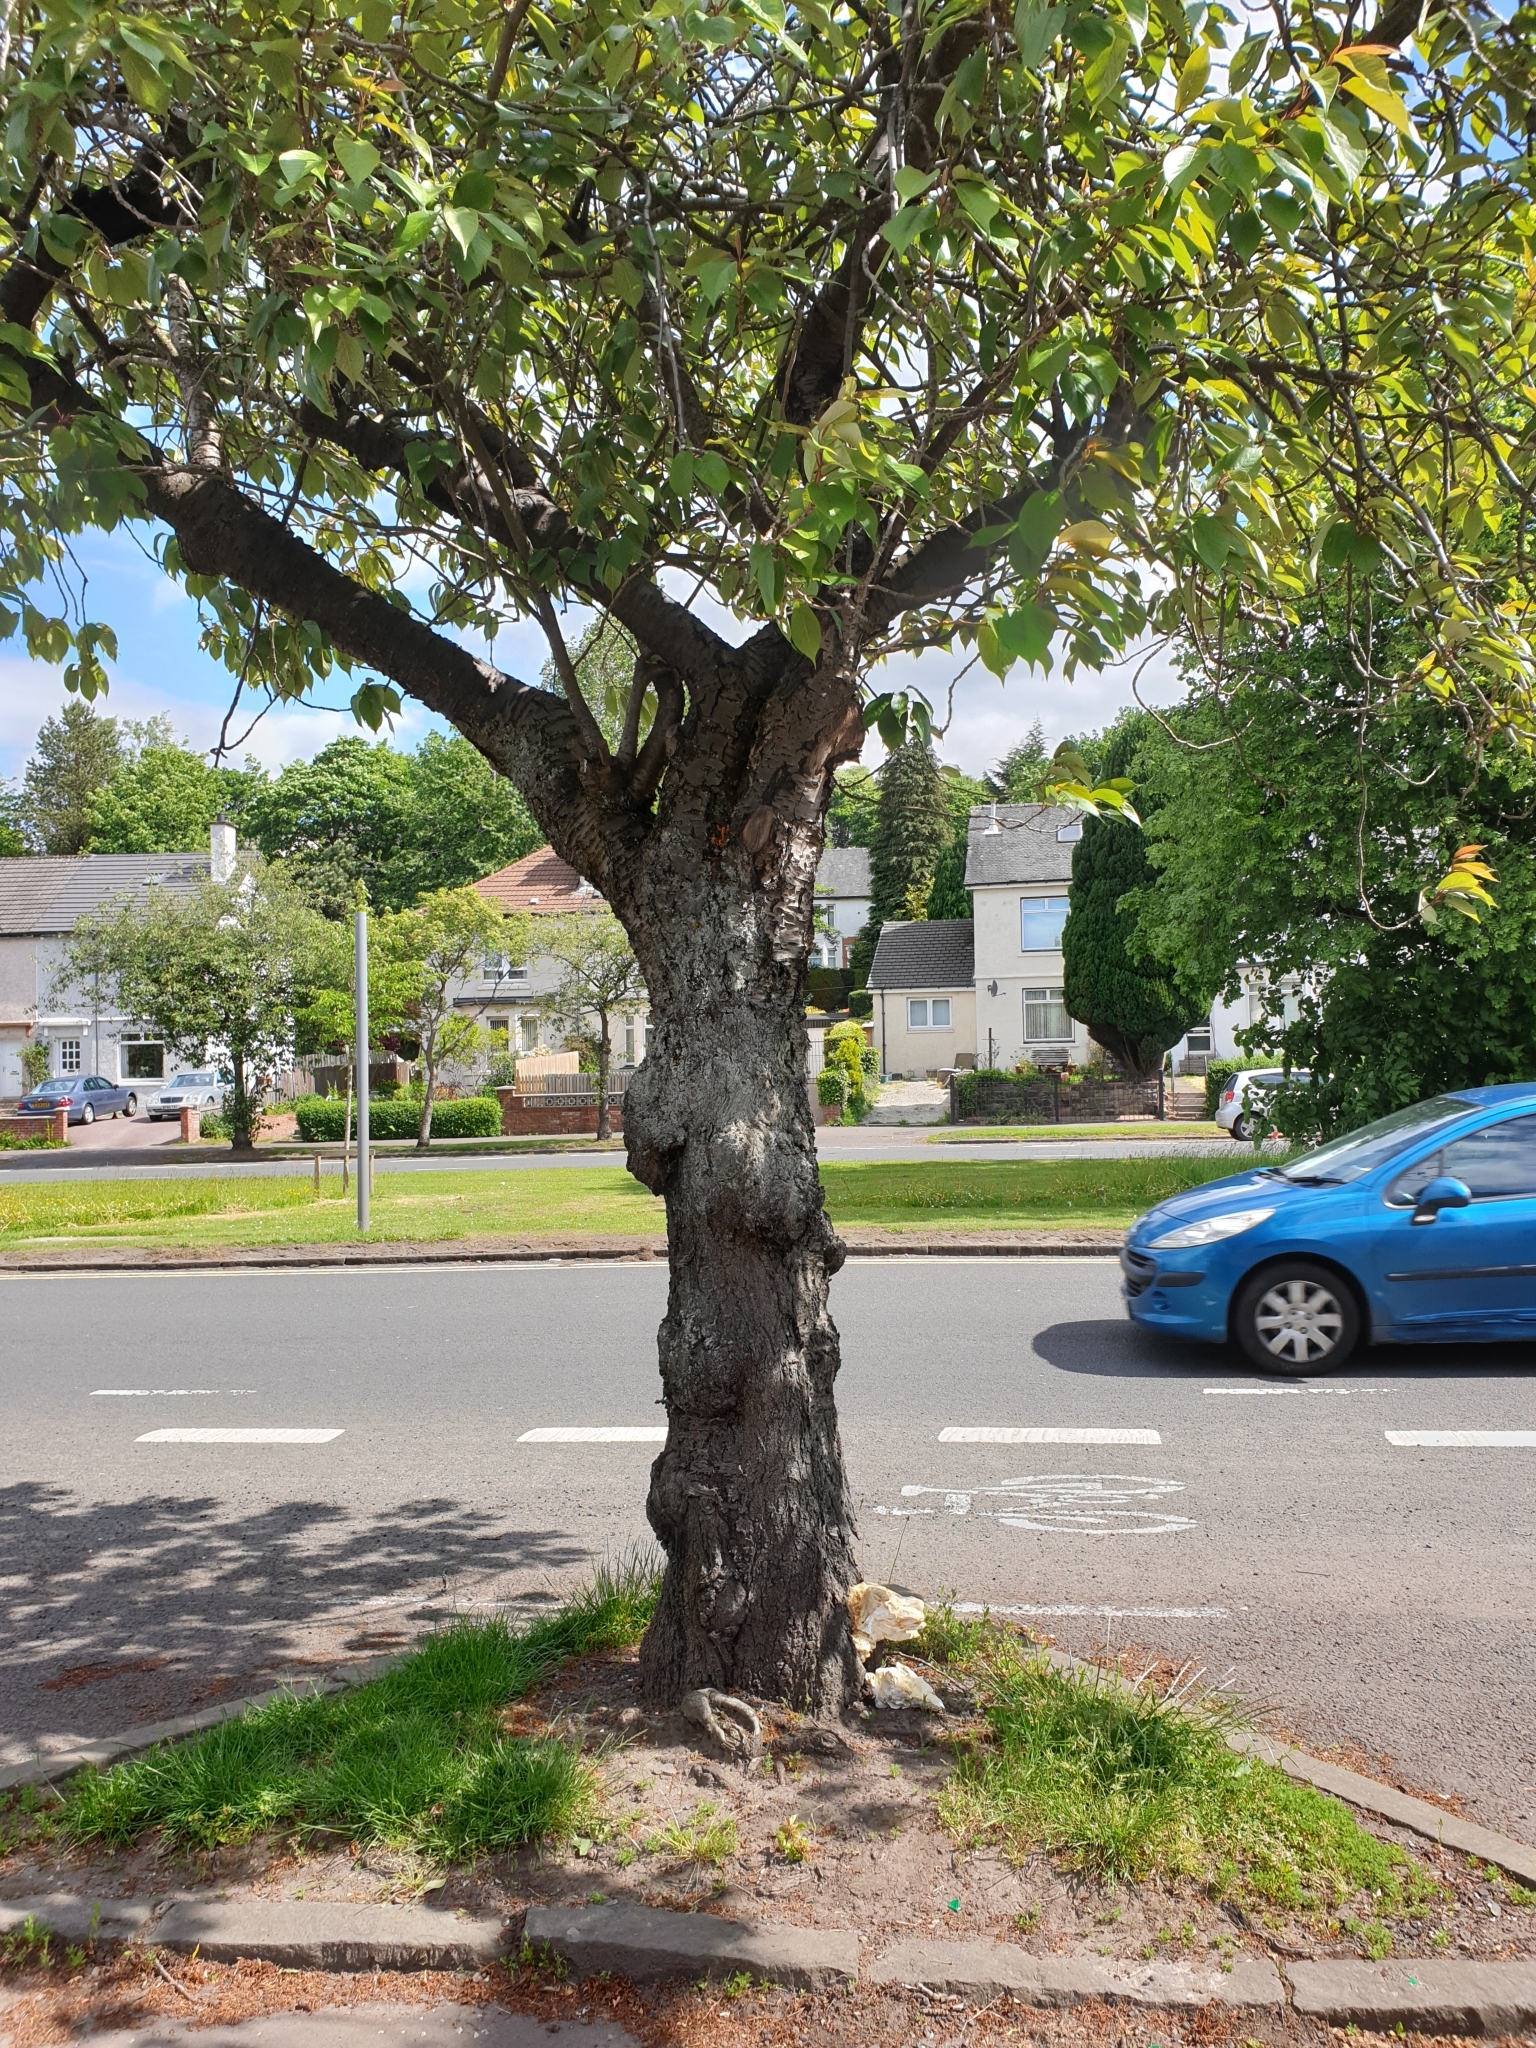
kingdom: Fungi
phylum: Basidiomycota
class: Agaricomycetes
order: Polyporales
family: Laetiporaceae
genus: Laetiporus
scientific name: Laetiporus sulphureus
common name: Chicken of the woods
